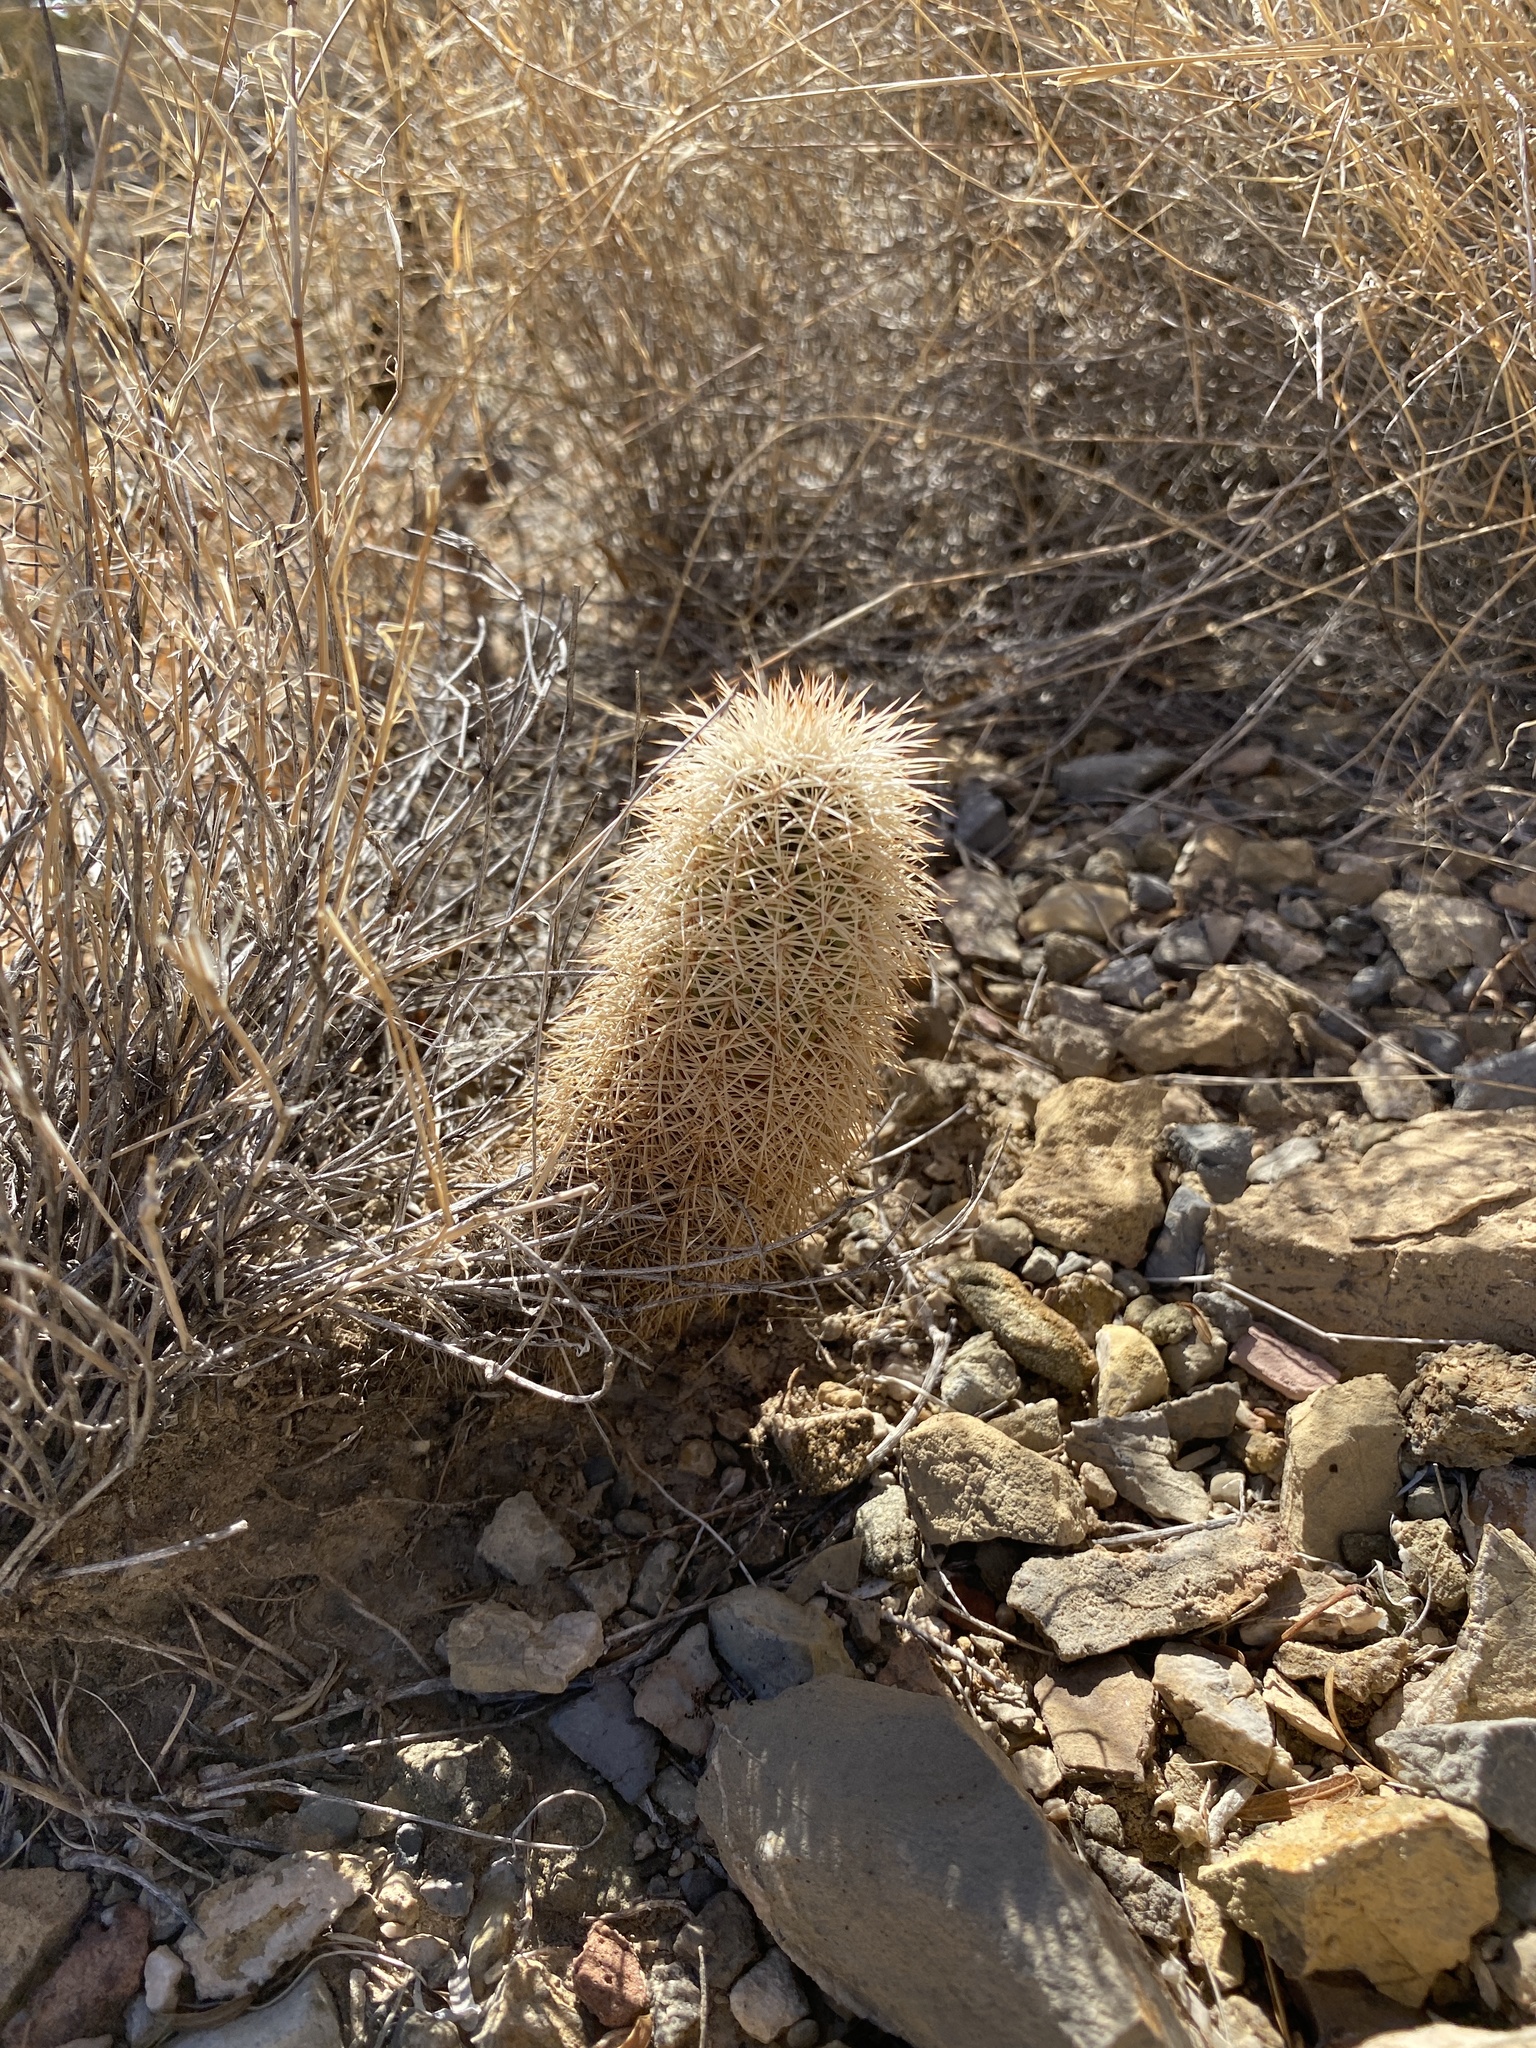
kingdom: Plantae
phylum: Tracheophyta
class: Magnoliopsida
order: Caryophyllales
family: Cactaceae
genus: Echinocereus
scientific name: Echinocereus dasyacanthus
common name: Spiny hedgehog cactus
